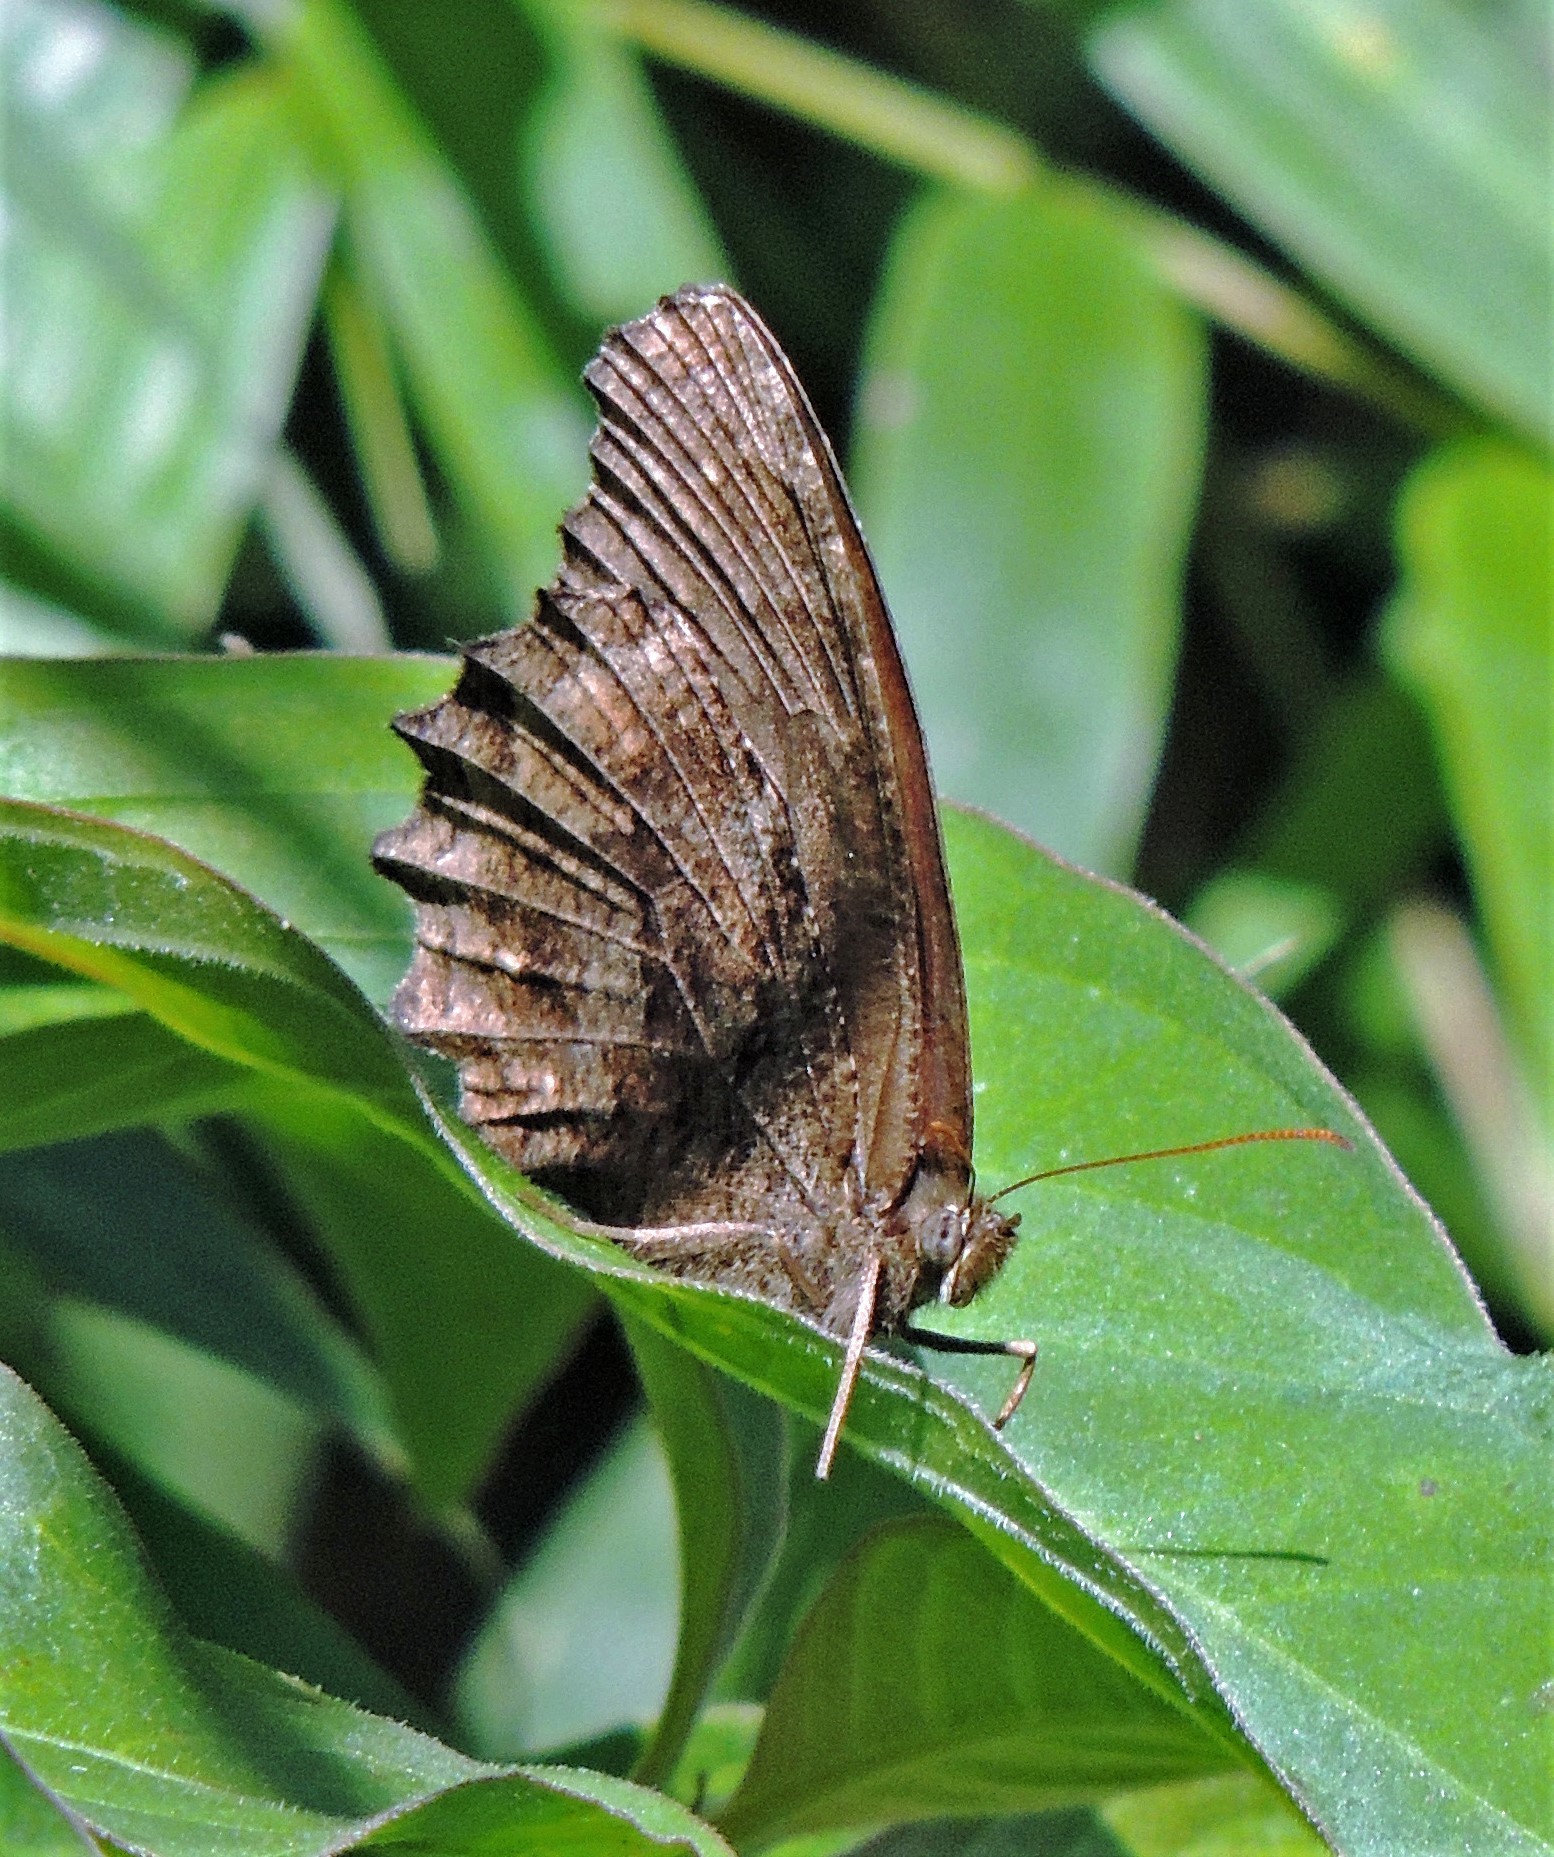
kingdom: Animalia
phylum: Arthropoda
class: Insecta
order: Lepidoptera
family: Nymphalidae
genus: Praepedaliodes
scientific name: Praepedaliodes phanias
